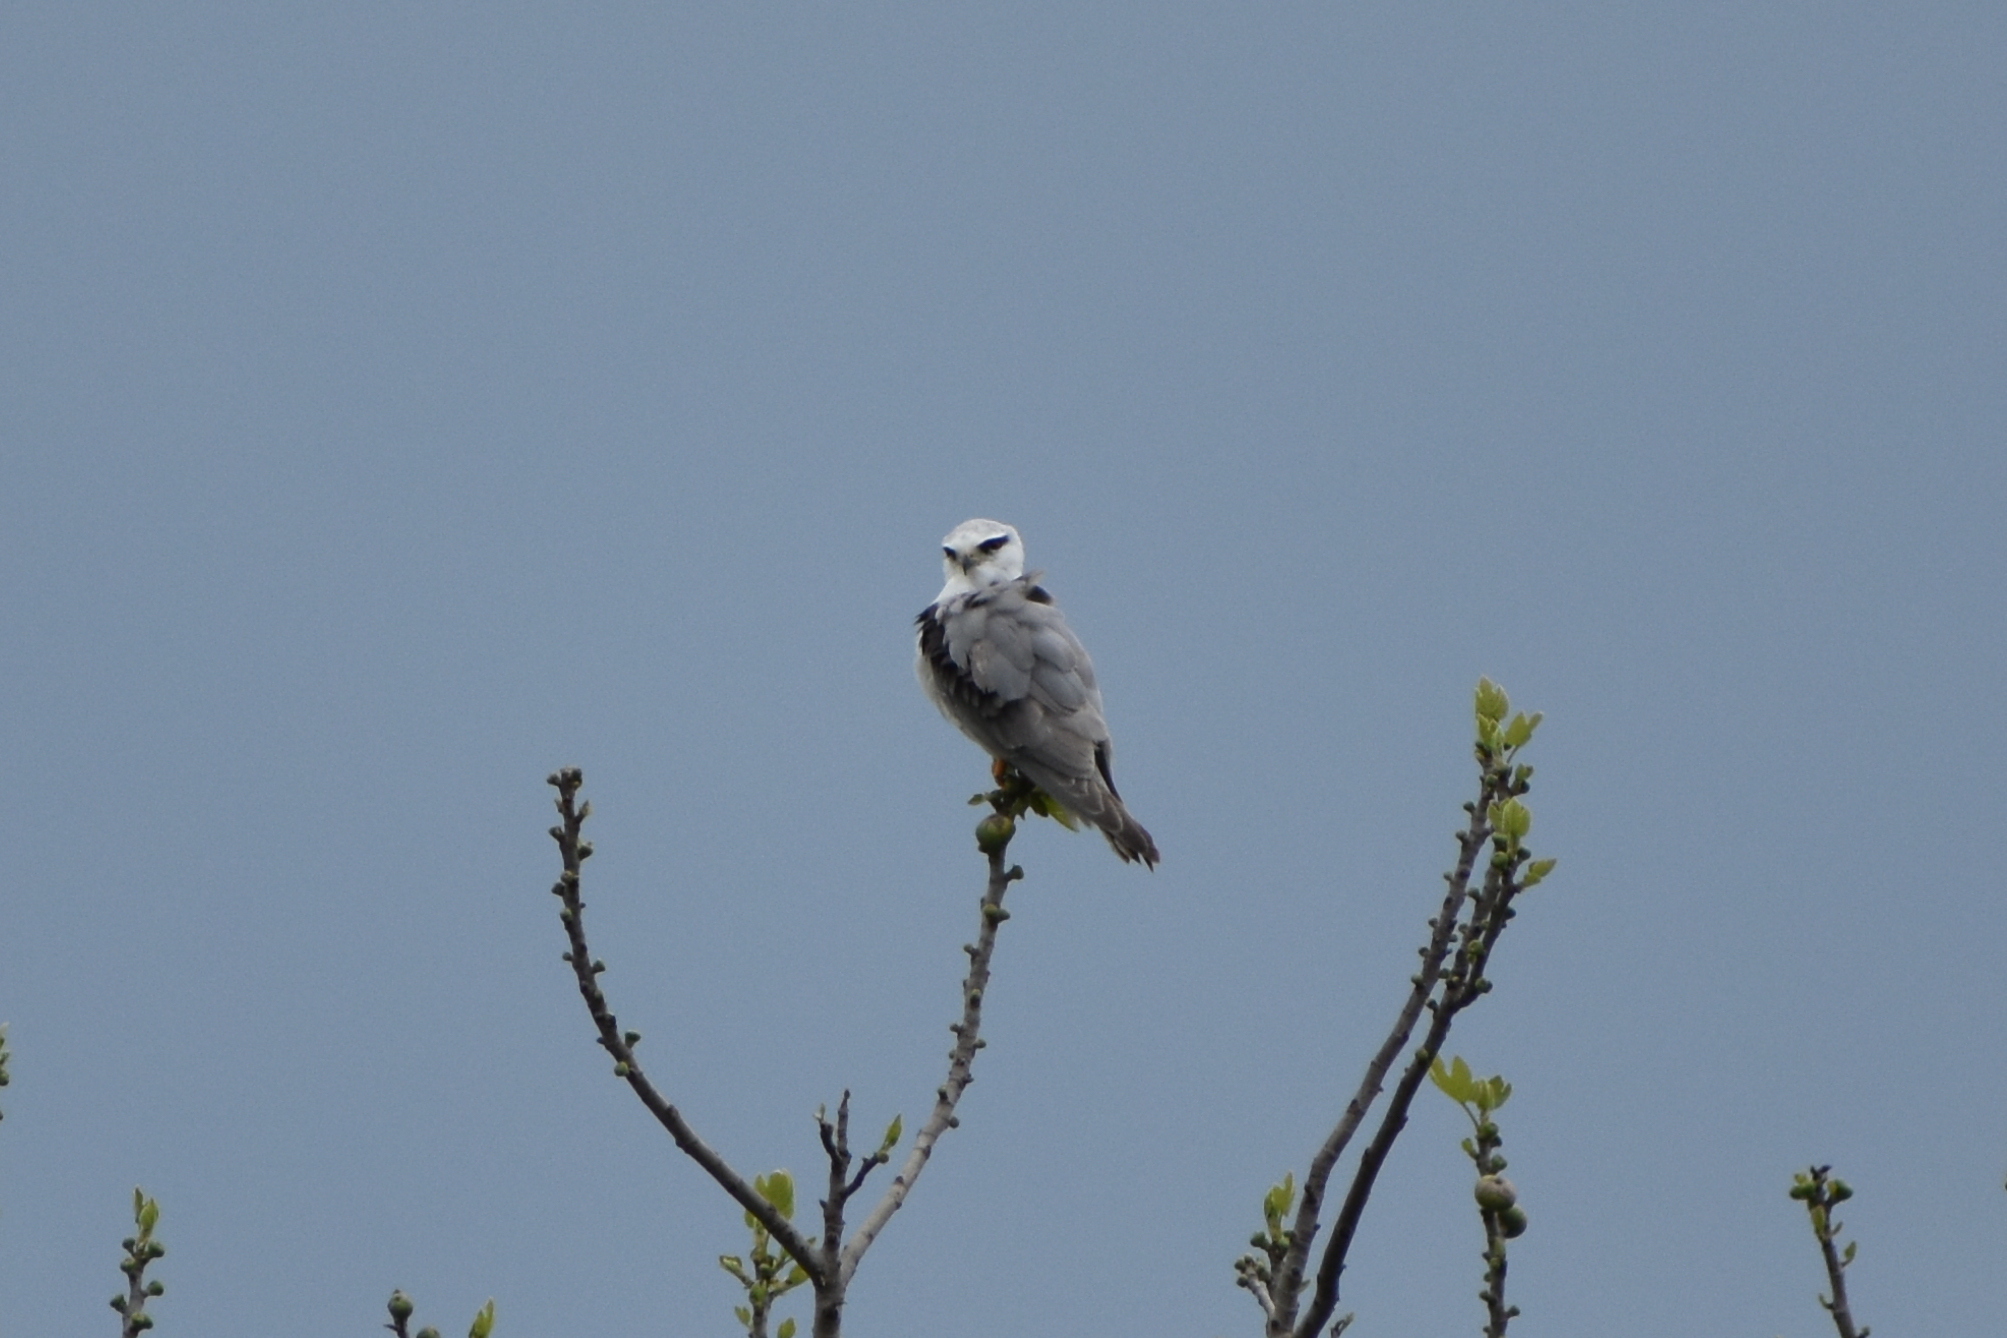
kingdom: Animalia
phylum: Chordata
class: Aves
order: Accipitriformes
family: Accipitridae
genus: Elanus
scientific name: Elanus caeruleus
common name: Black-winged kite
